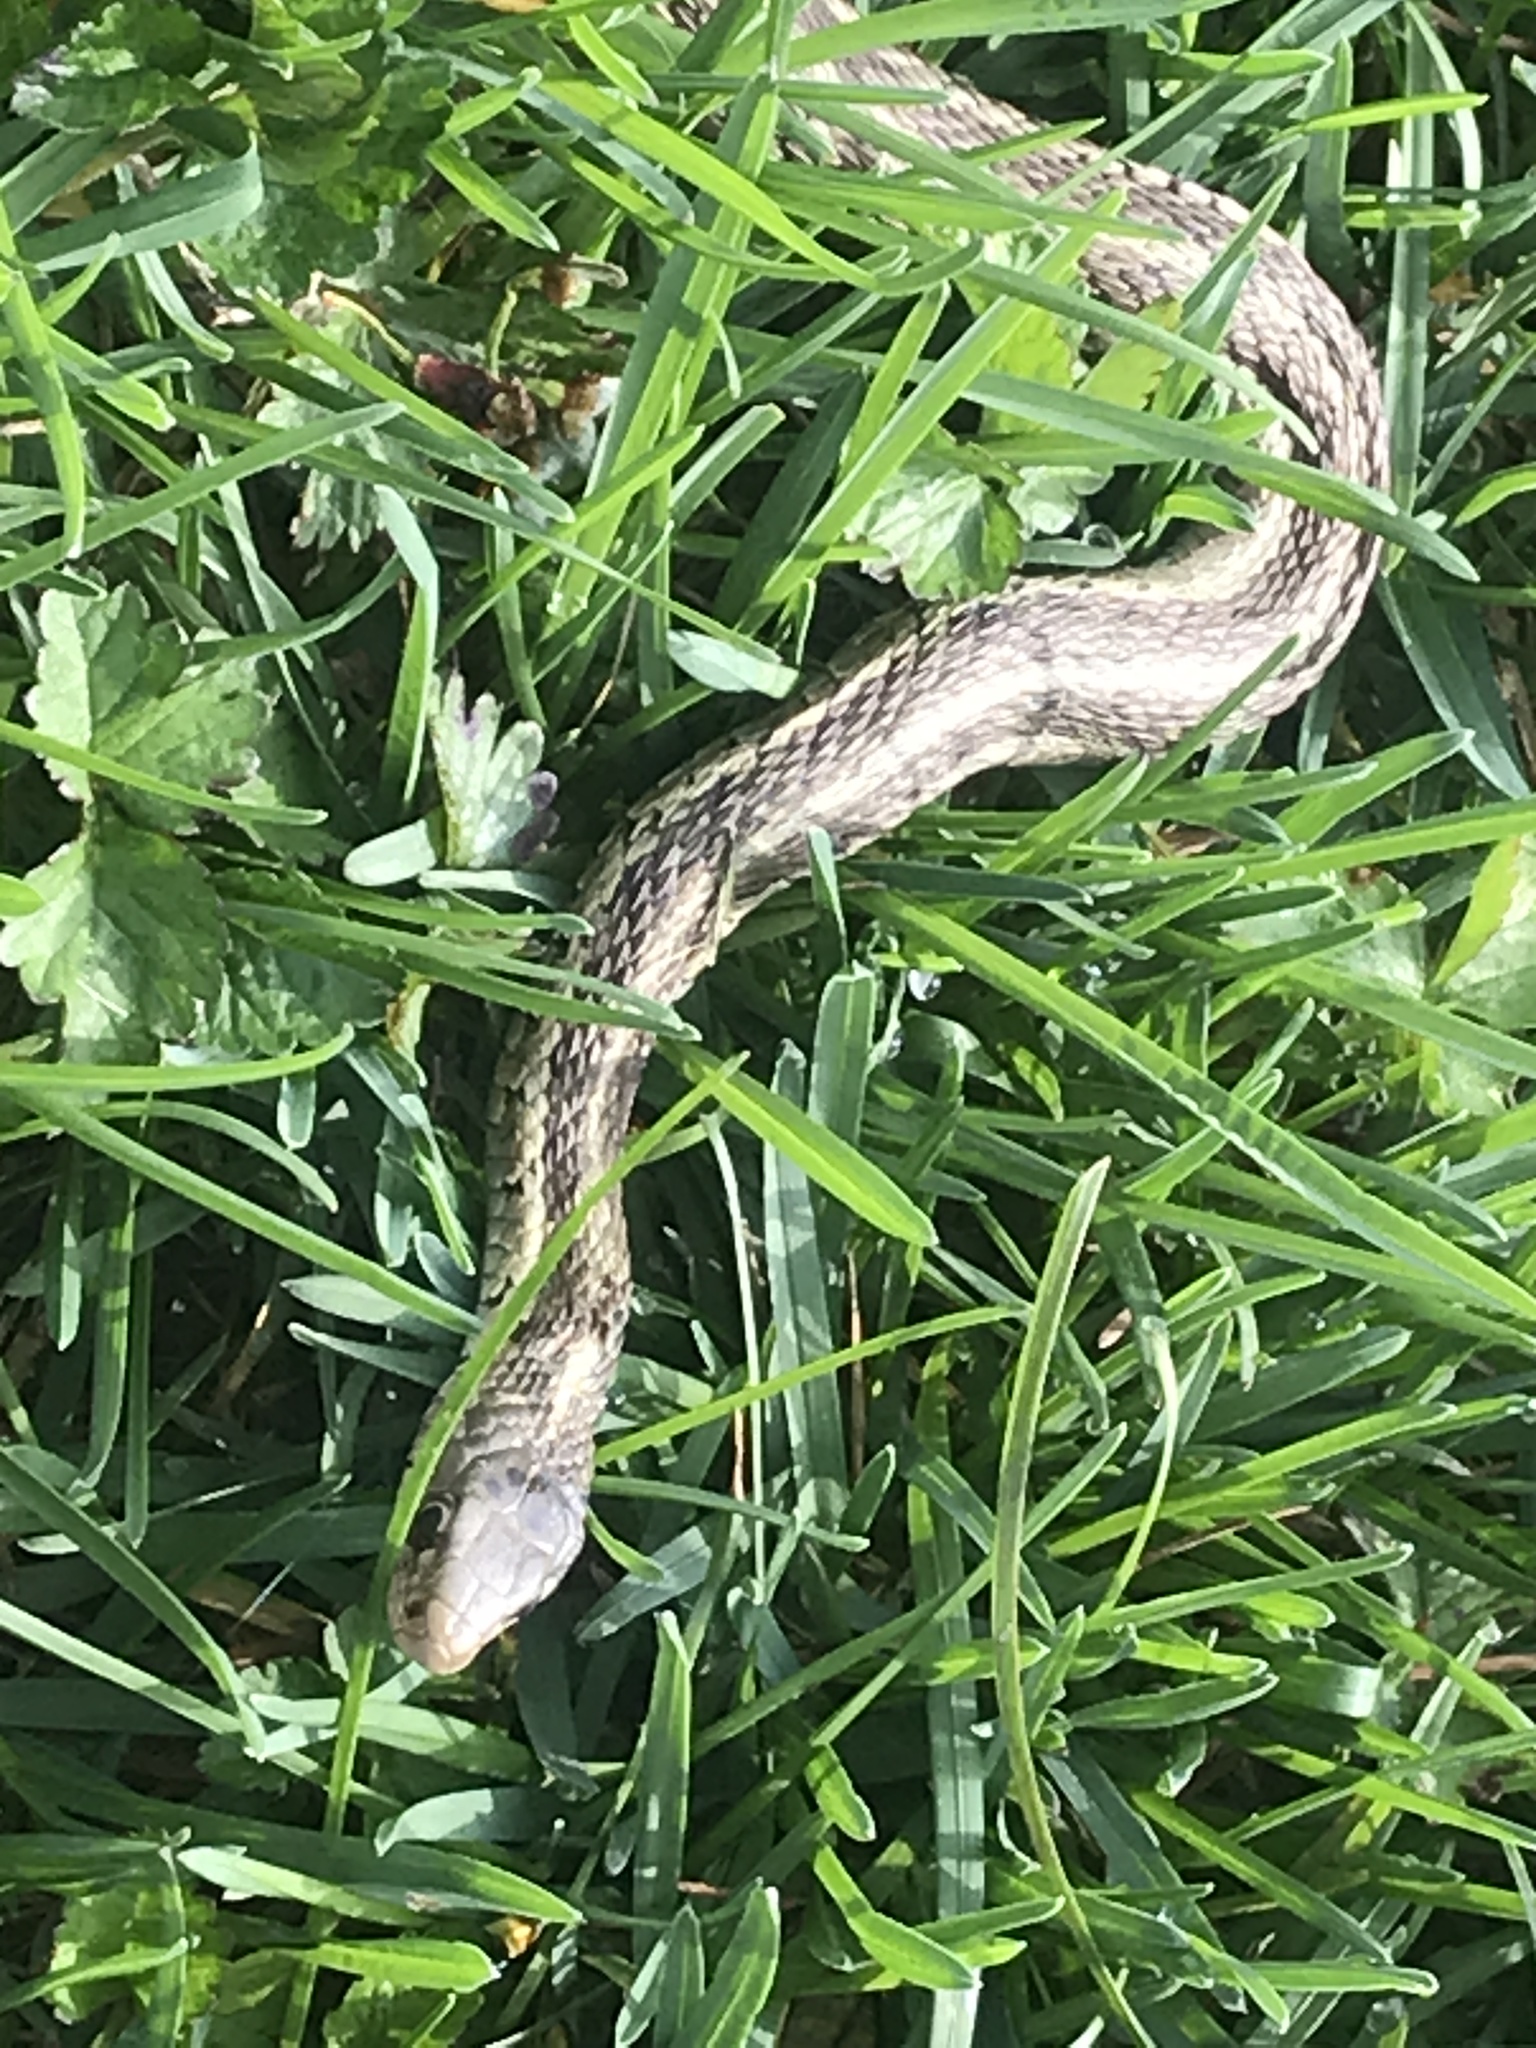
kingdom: Animalia
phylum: Chordata
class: Squamata
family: Colubridae
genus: Thamnophis
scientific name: Thamnophis sirtalis
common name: Common garter snake
